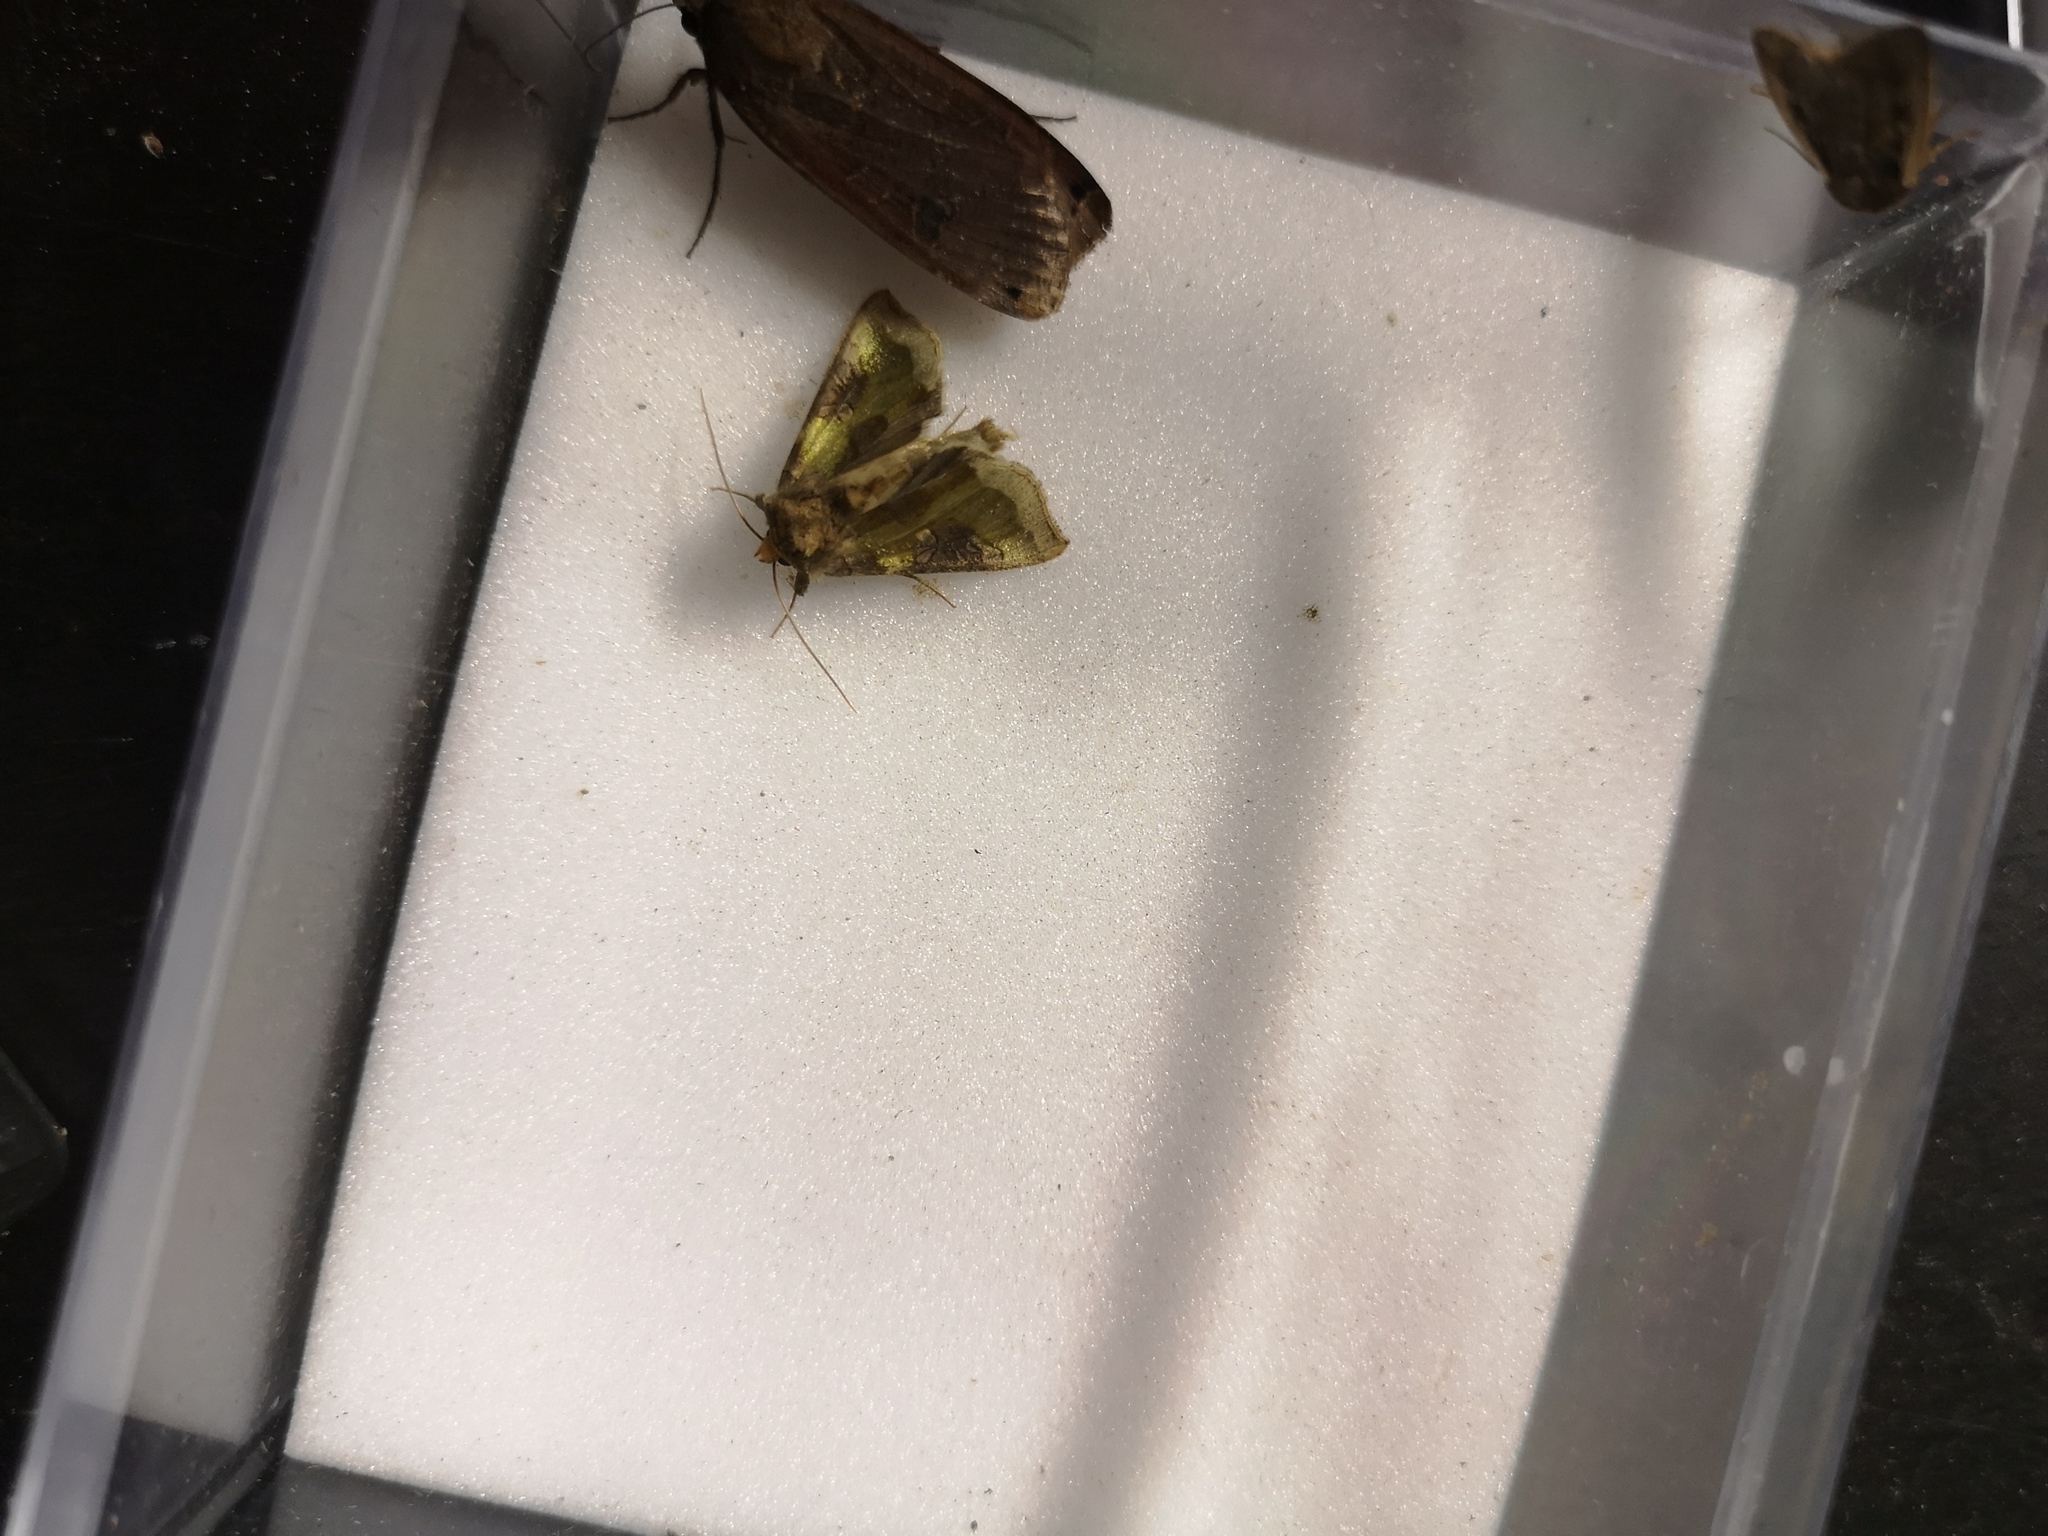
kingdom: Animalia
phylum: Arthropoda
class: Insecta
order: Lepidoptera
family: Noctuidae
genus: Diachrysia
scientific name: Diachrysia chrysitis
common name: Burnished brass
